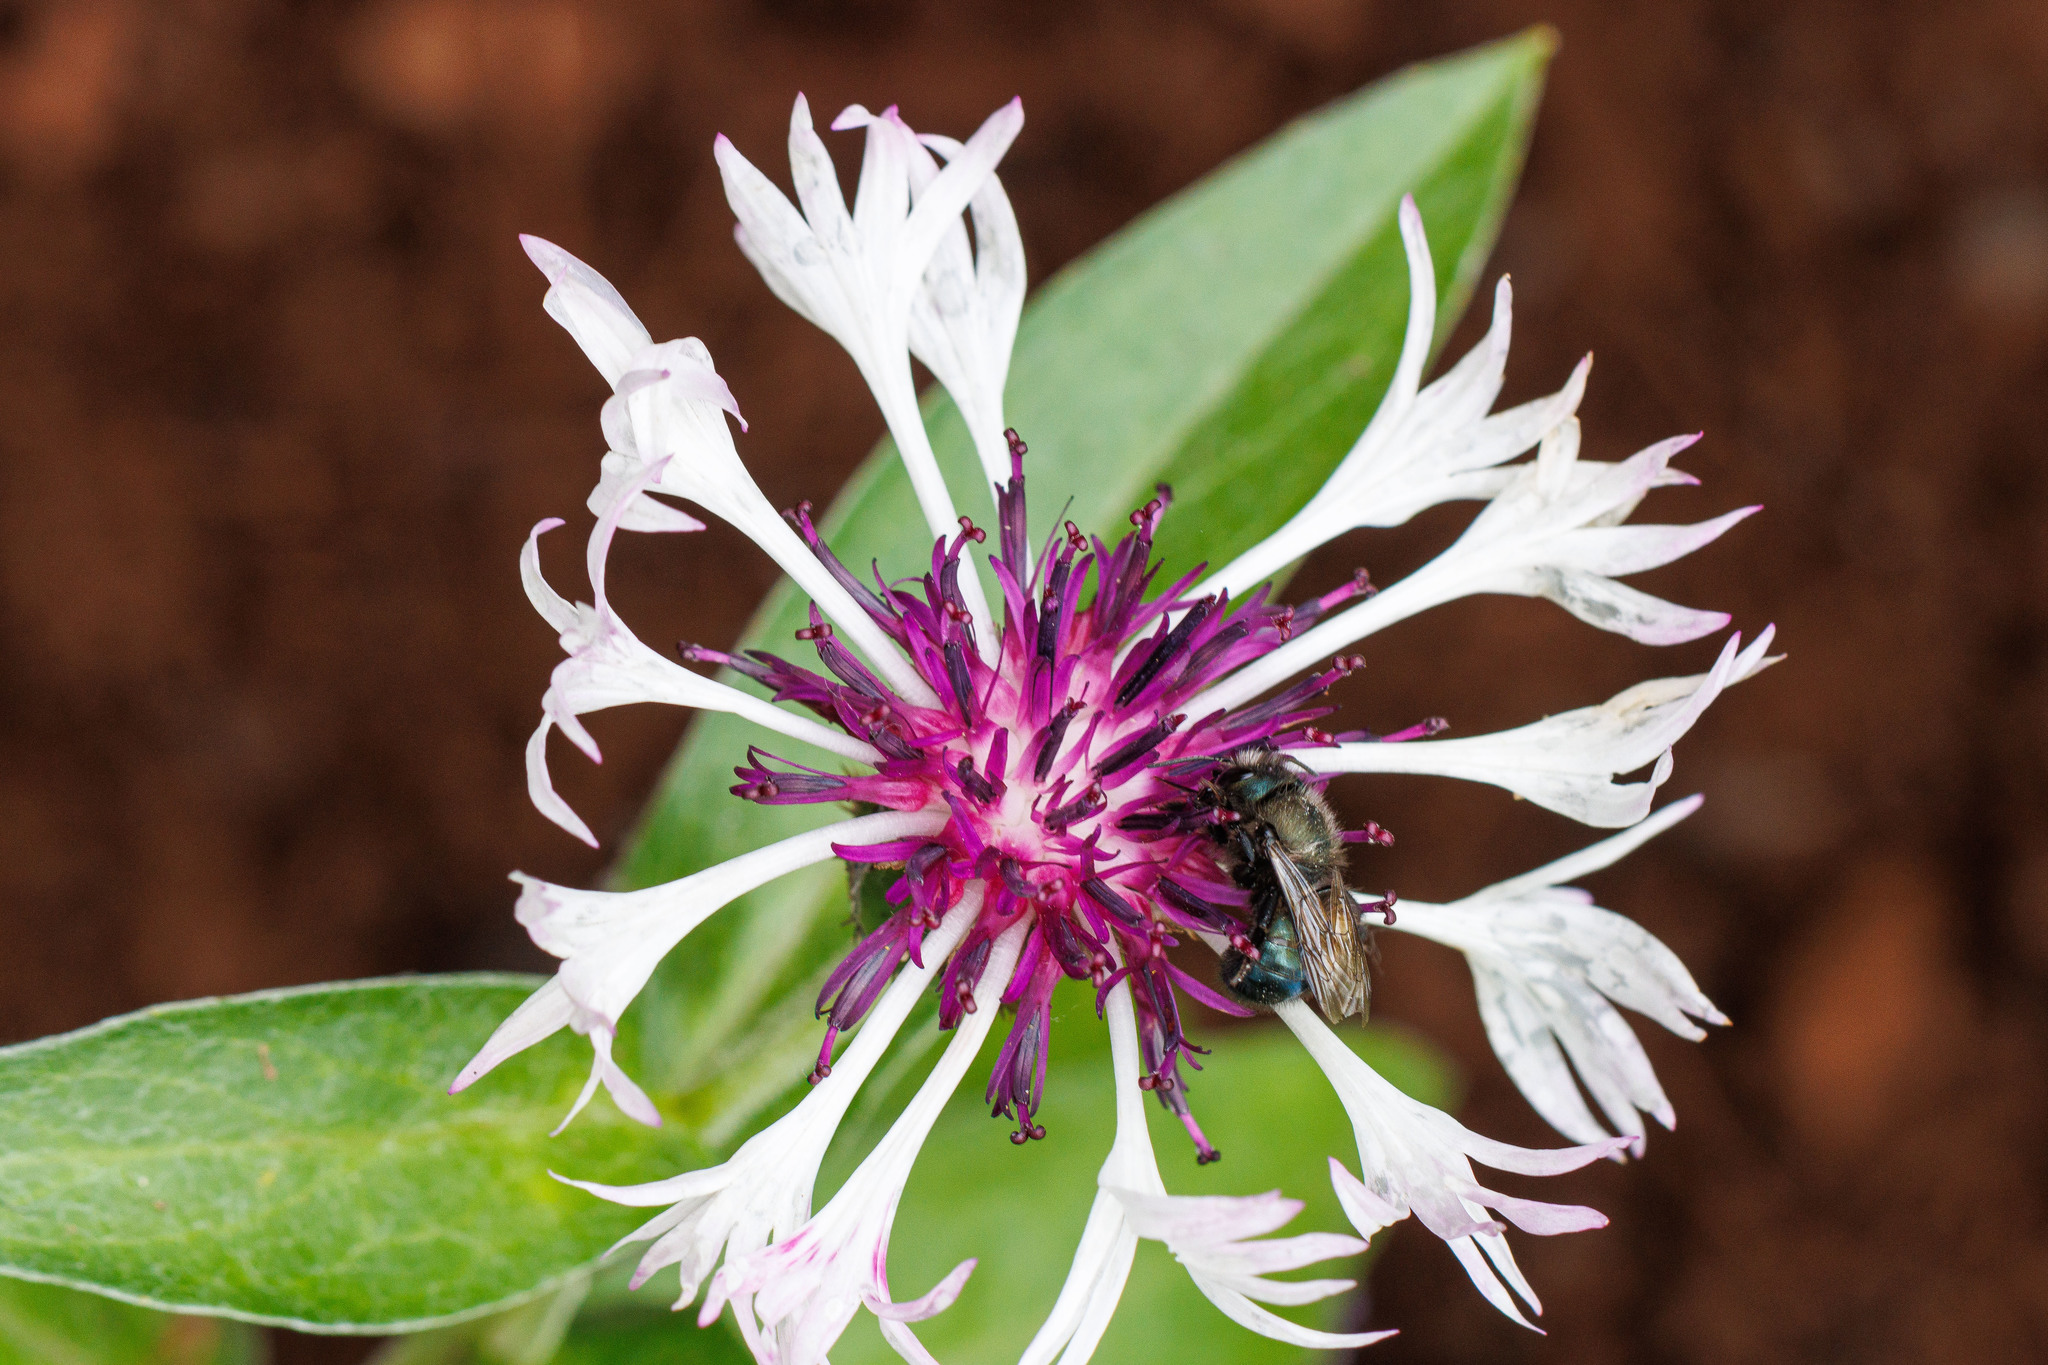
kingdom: Animalia
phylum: Arthropoda
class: Insecta
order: Hymenoptera
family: Megachilidae
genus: Osmia
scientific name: Osmia lignaria
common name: Blue orchard bee
